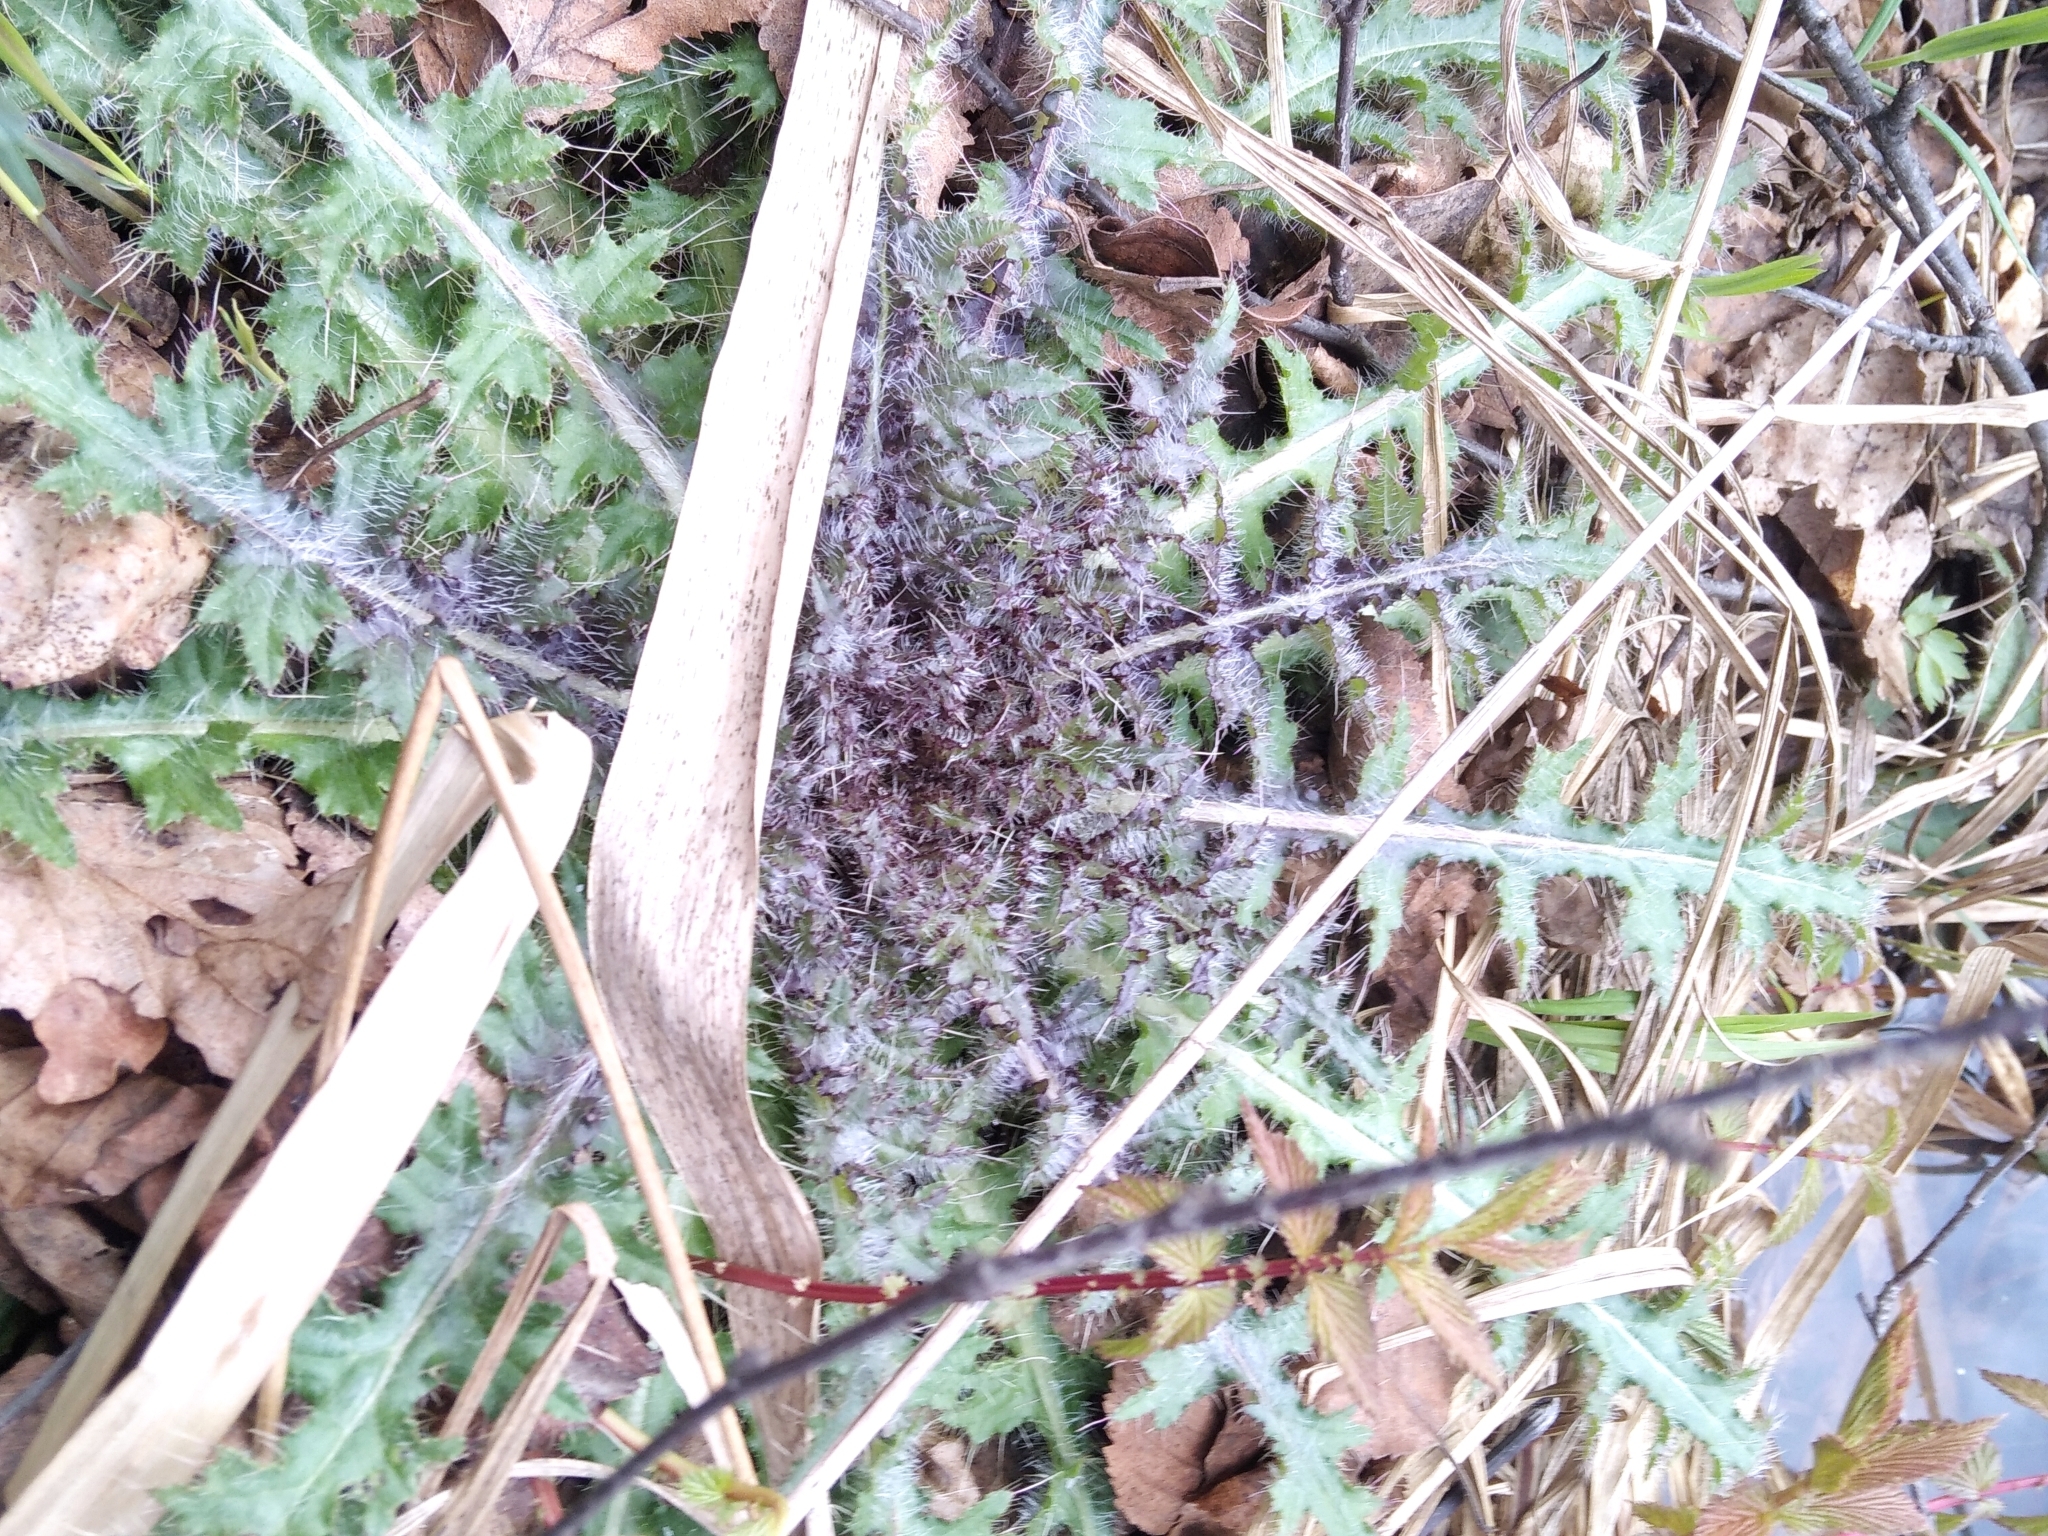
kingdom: Plantae
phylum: Tracheophyta
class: Magnoliopsida
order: Asterales
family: Asteraceae
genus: Cirsium
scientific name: Cirsium palustre
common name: Marsh thistle
